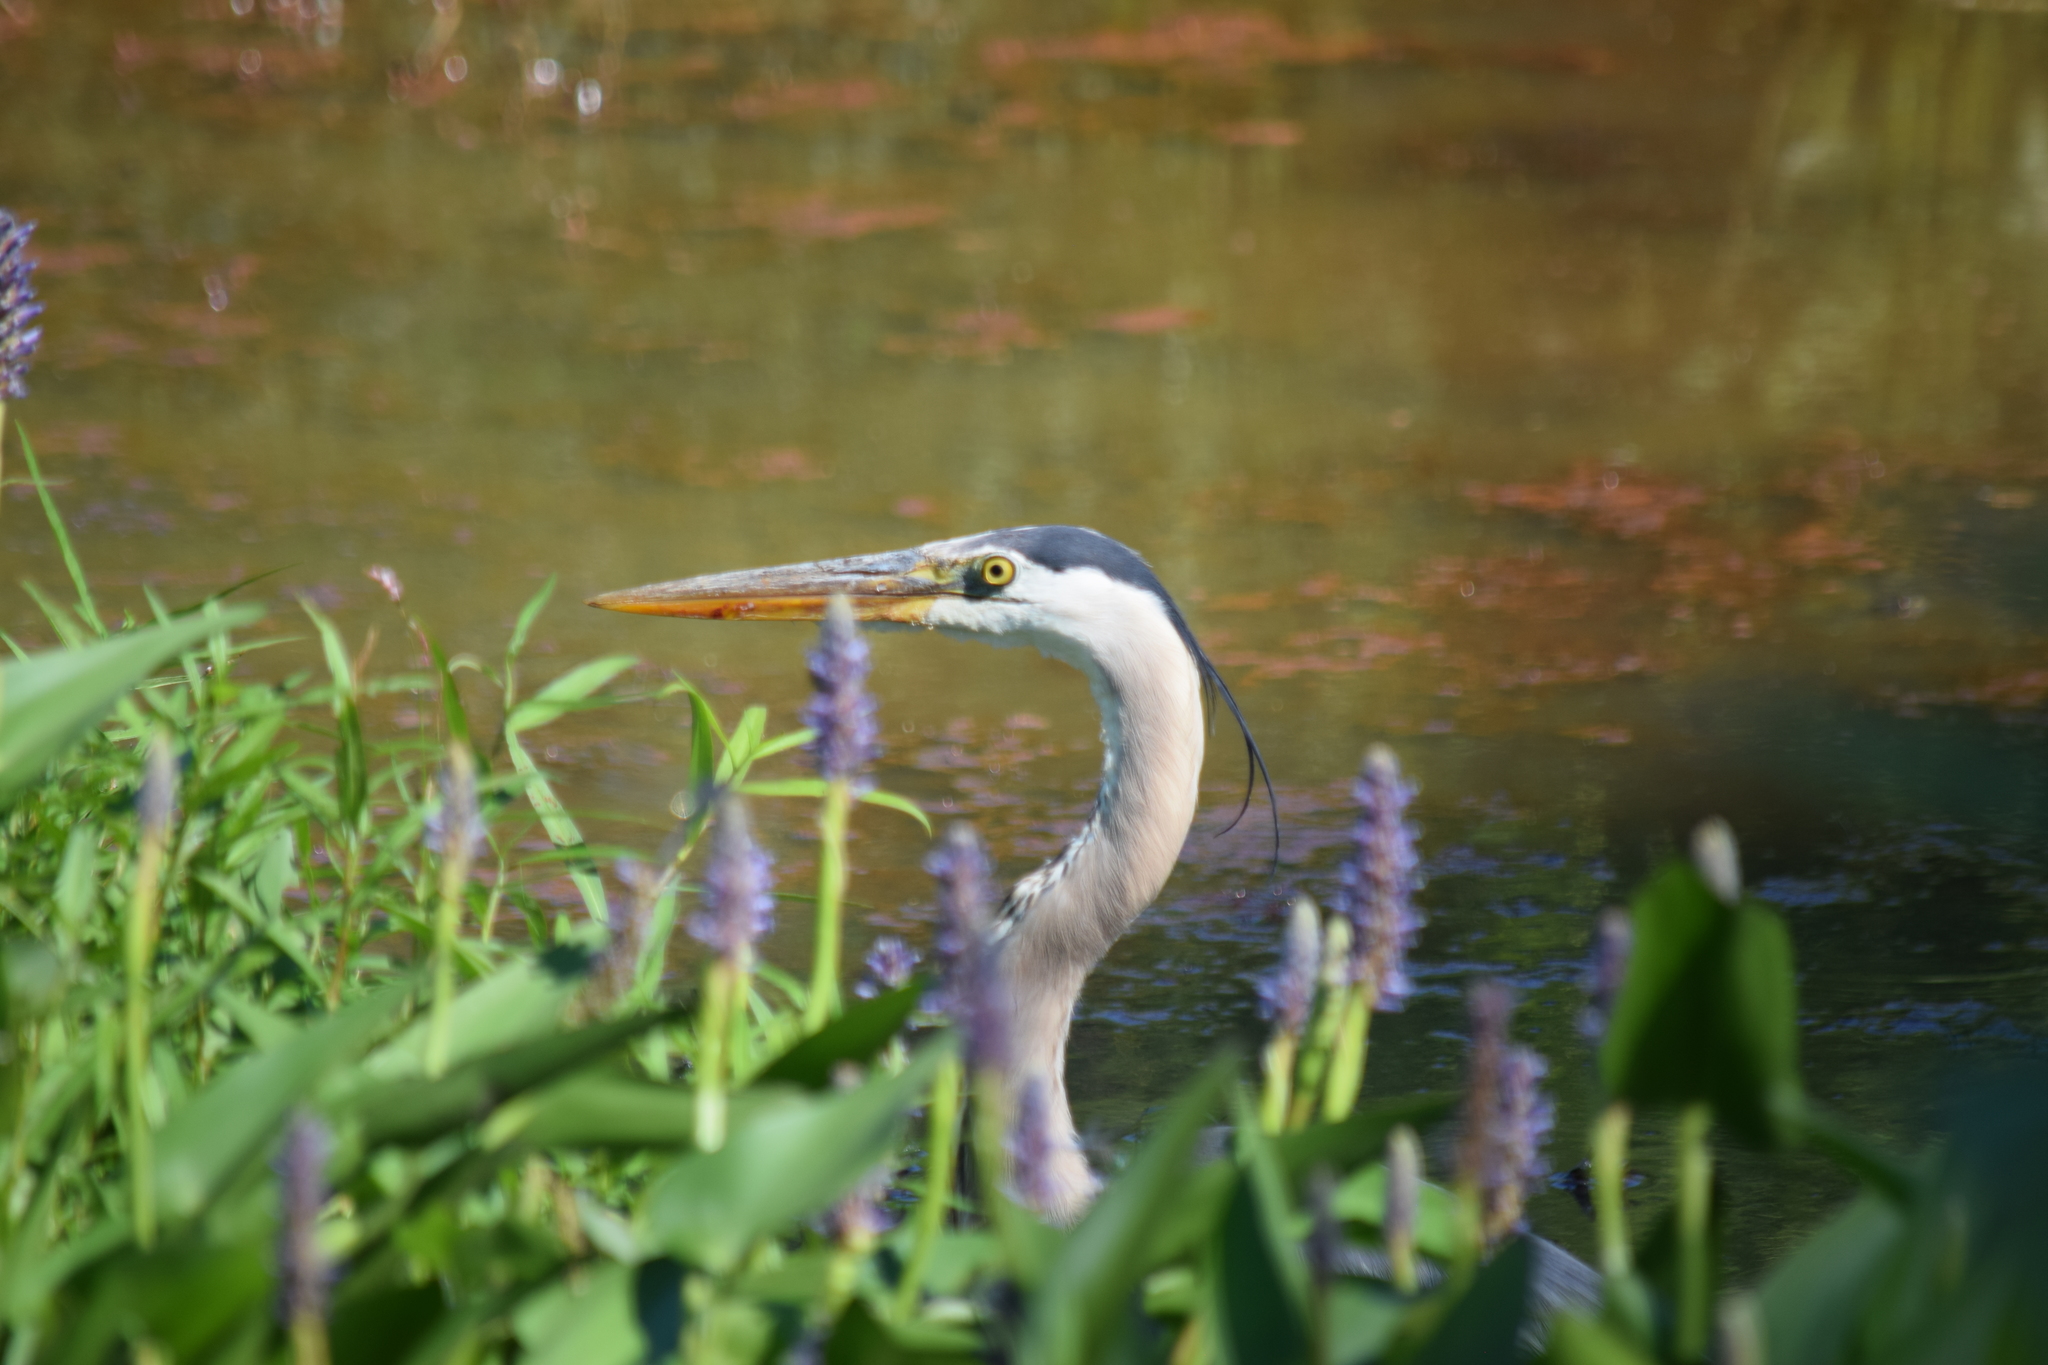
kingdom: Animalia
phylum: Chordata
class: Aves
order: Pelecaniformes
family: Ardeidae
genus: Ardea
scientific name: Ardea herodias
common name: Great blue heron
